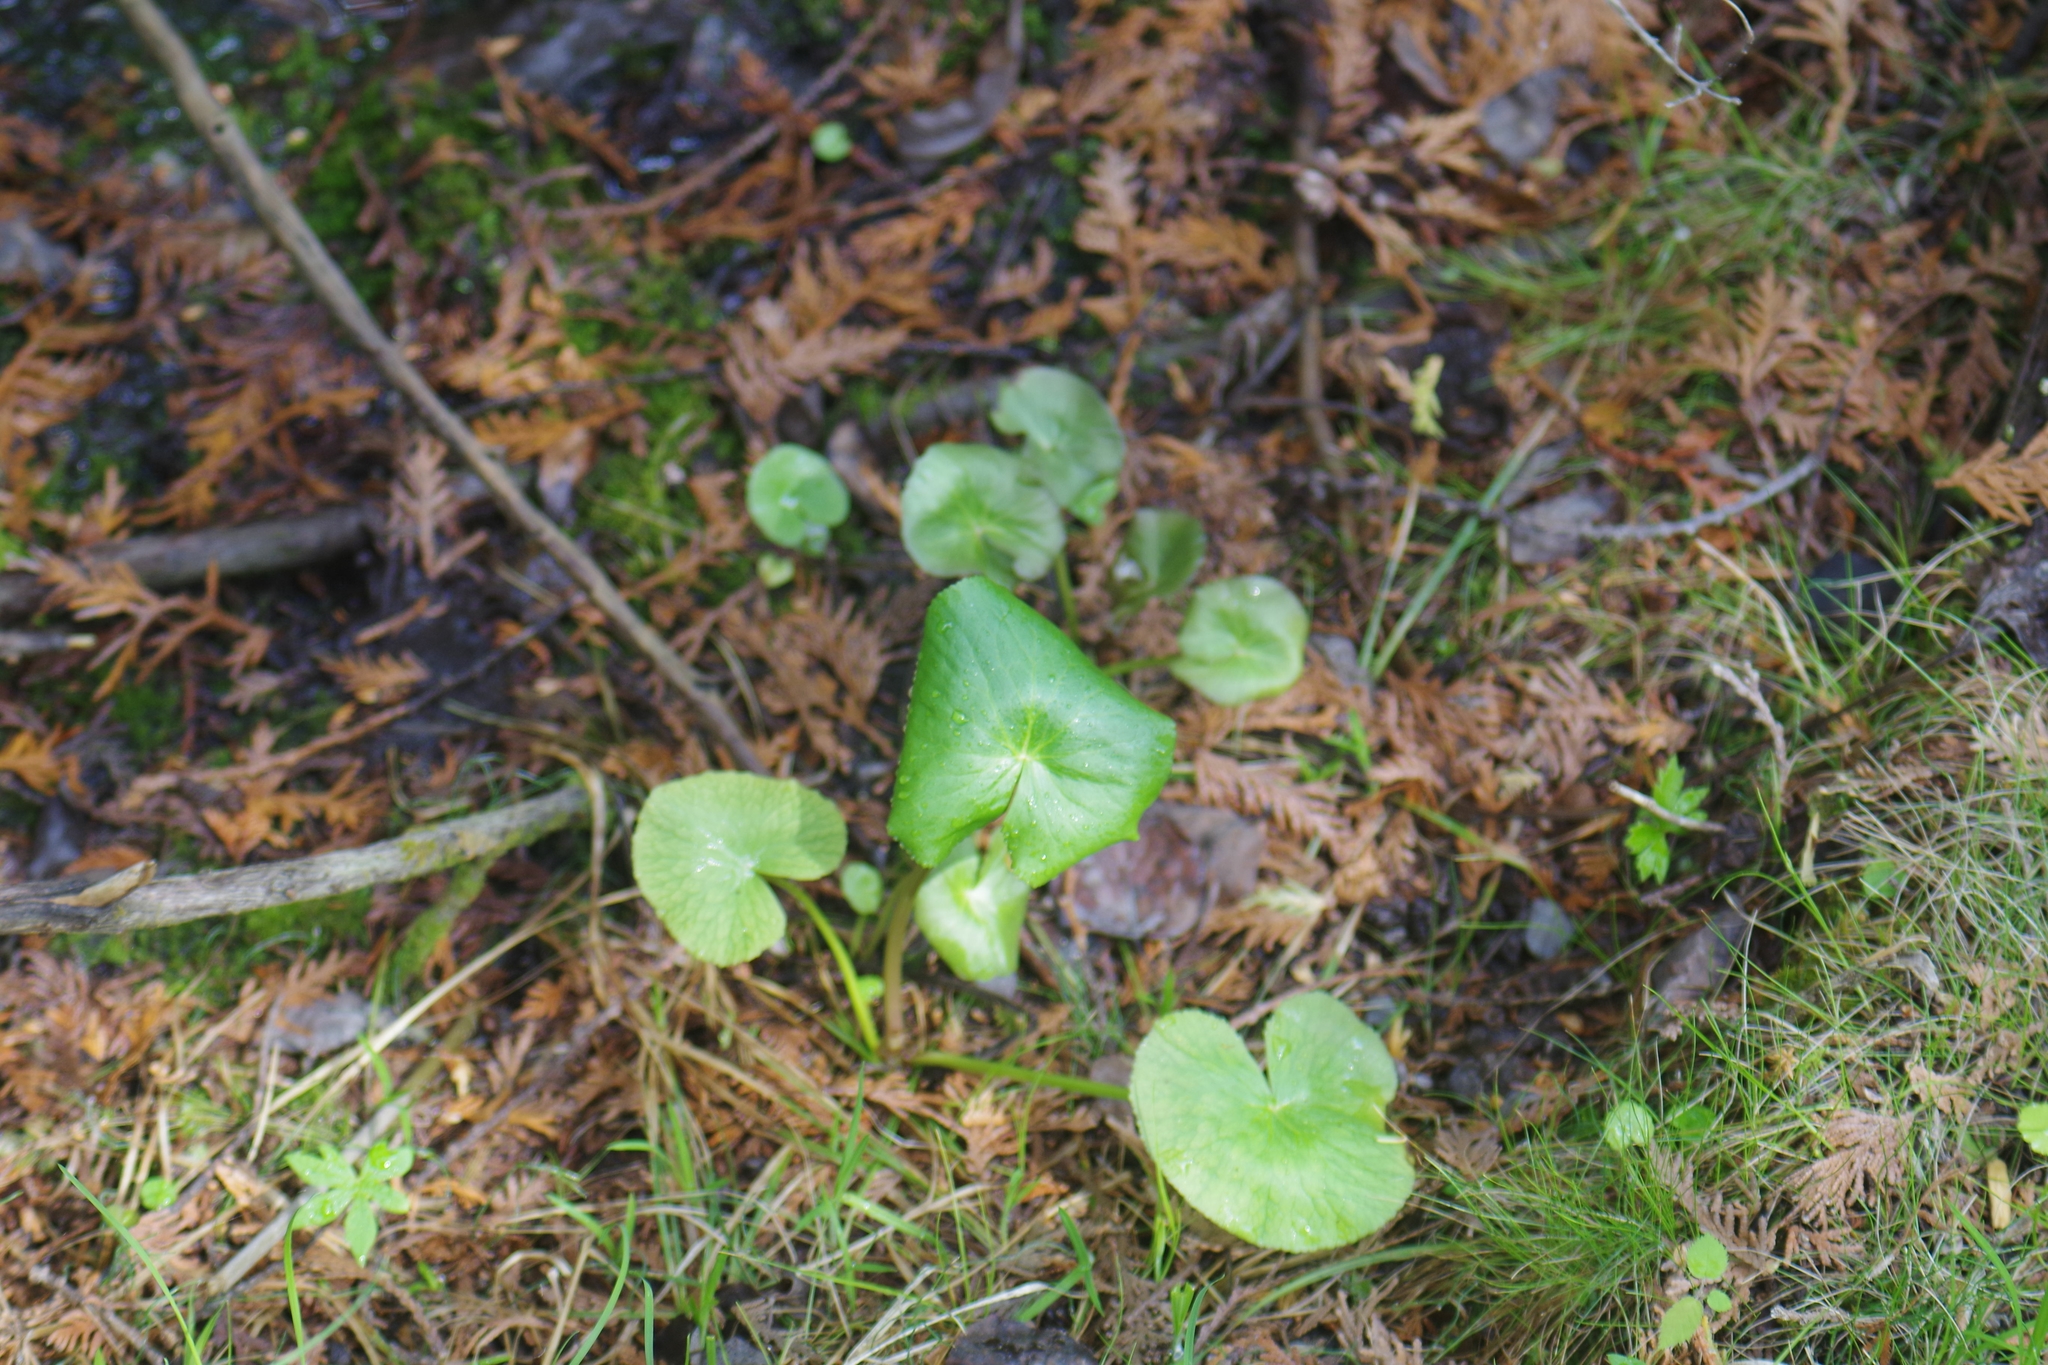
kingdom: Plantae
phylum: Tracheophyta
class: Magnoliopsida
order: Ranunculales
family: Ranunculaceae
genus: Caltha
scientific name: Caltha palustris
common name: Marsh marigold
